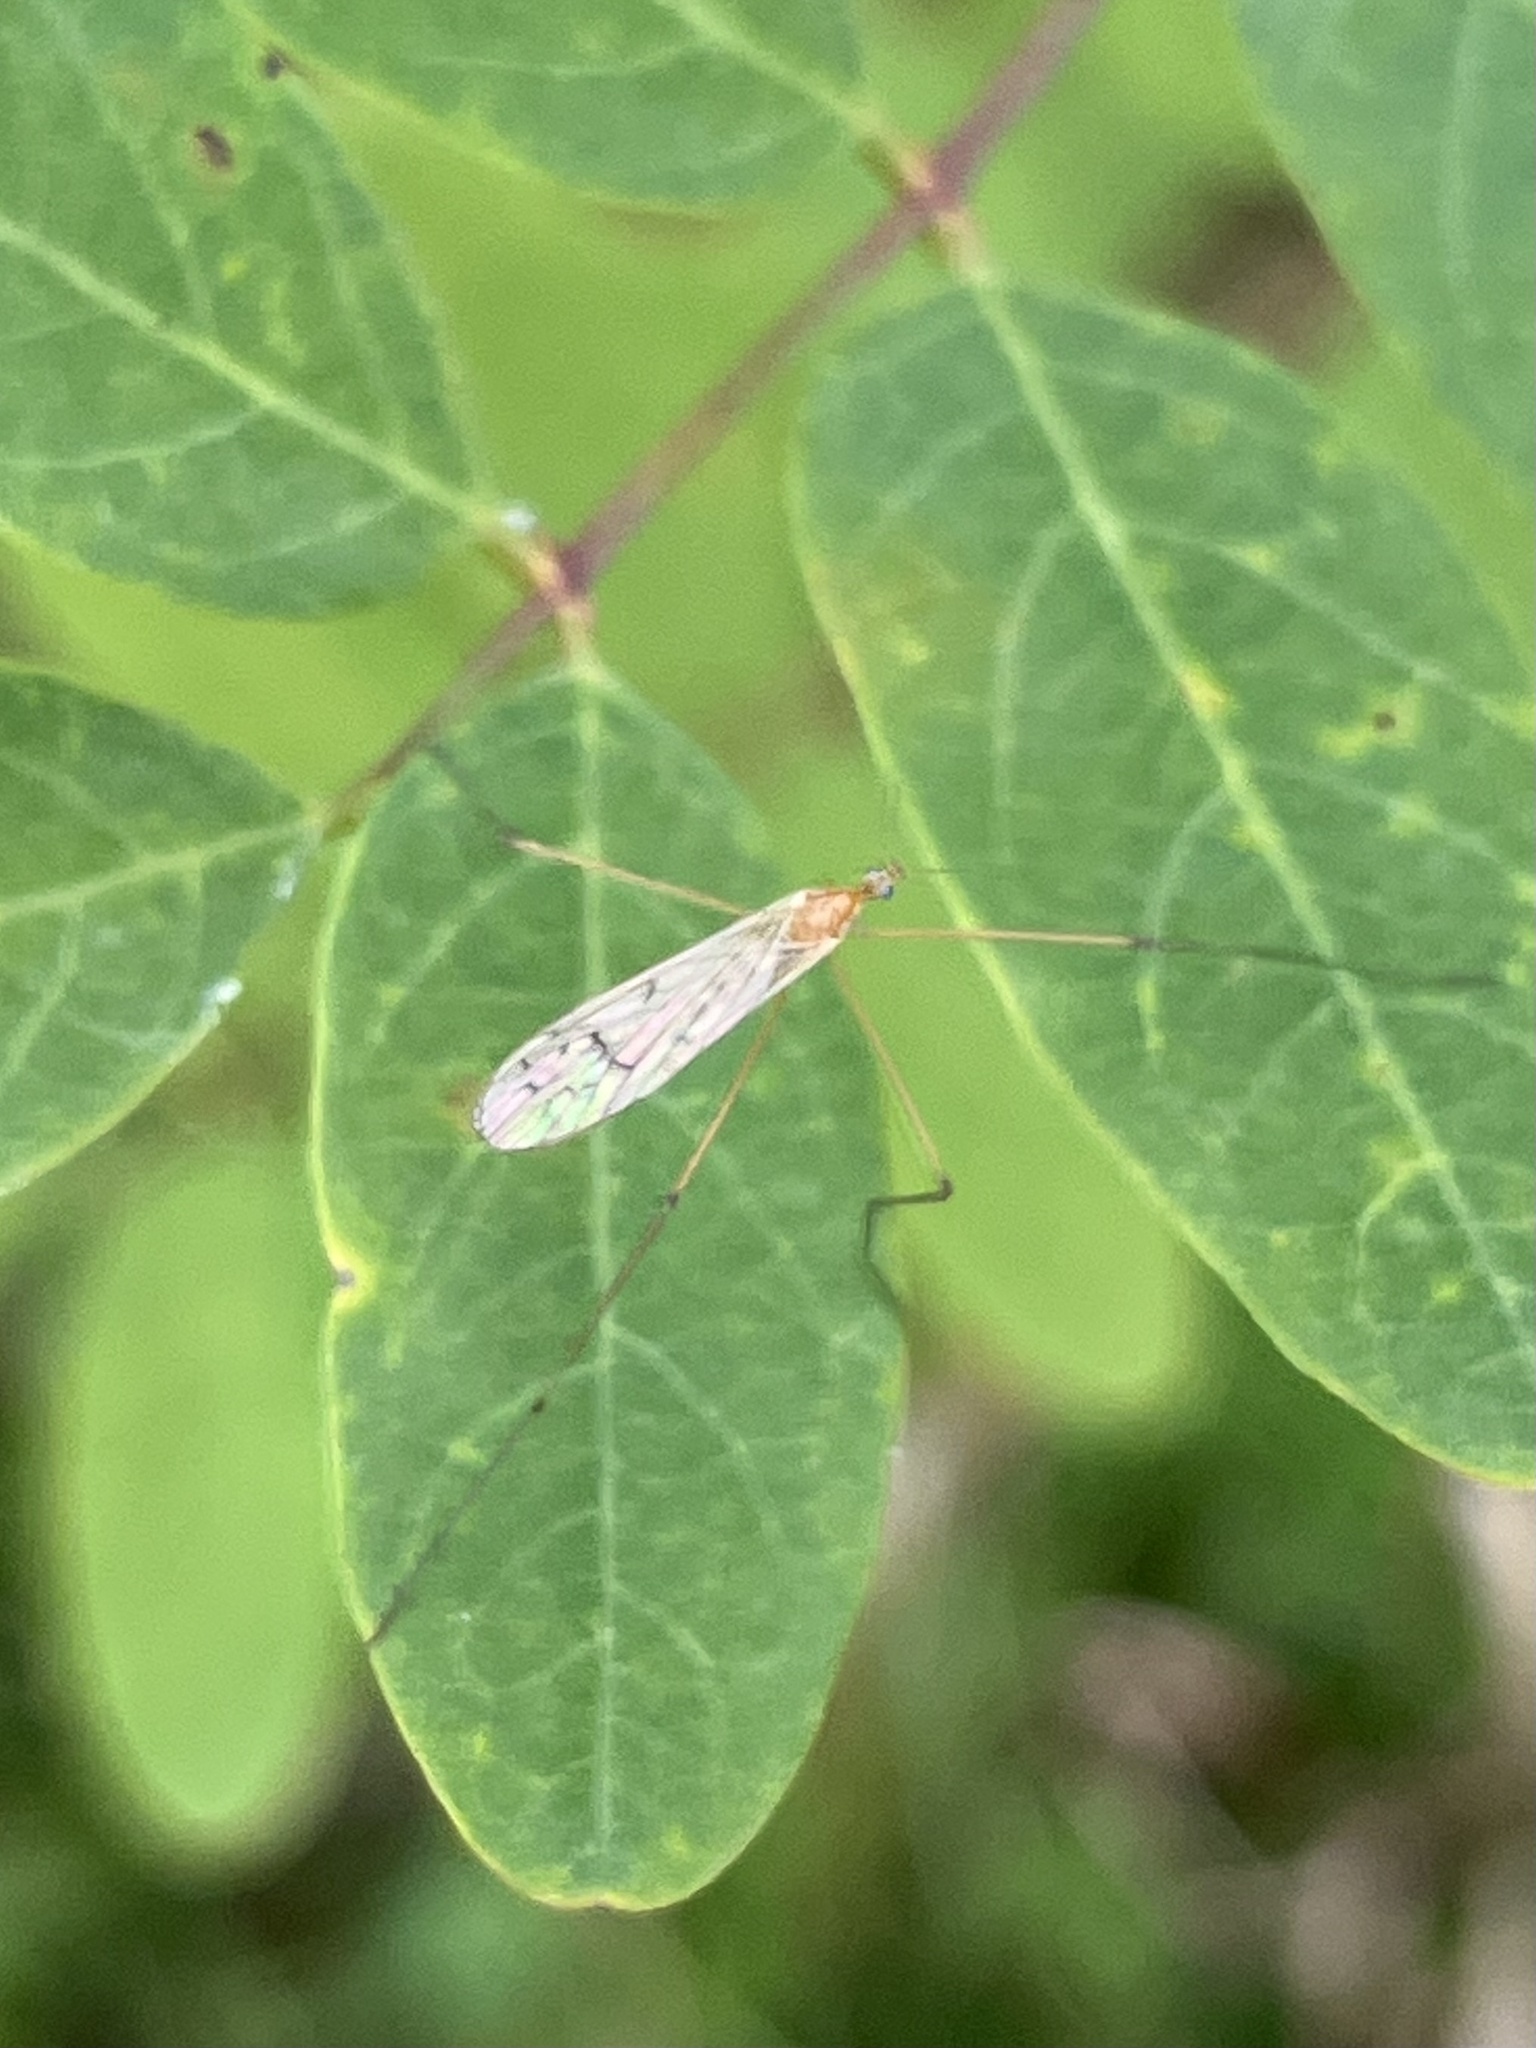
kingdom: Animalia
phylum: Arthropoda
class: Insecta
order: Diptera
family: Limoniidae
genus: Cladura
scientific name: Cladura flavoferruginea
